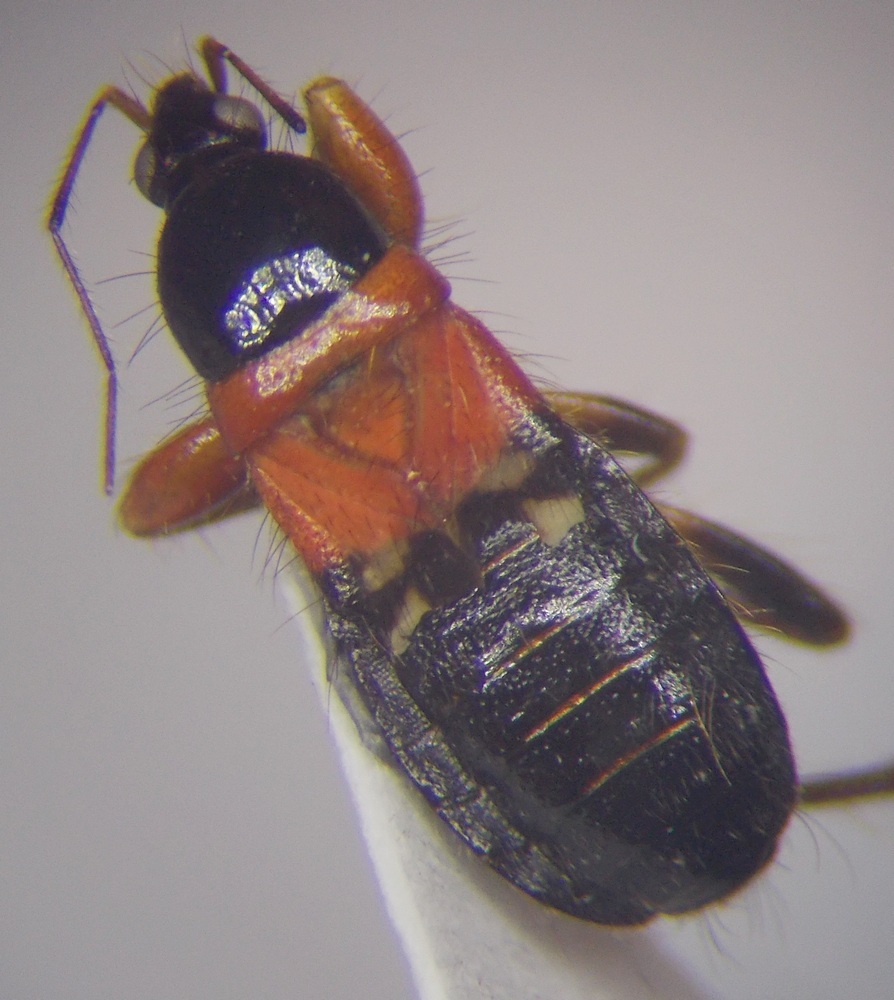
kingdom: Animalia
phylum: Arthropoda
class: Insecta
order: Hemiptera
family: Nabidae
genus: Prostemma
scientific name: Prostemma sanguineum
